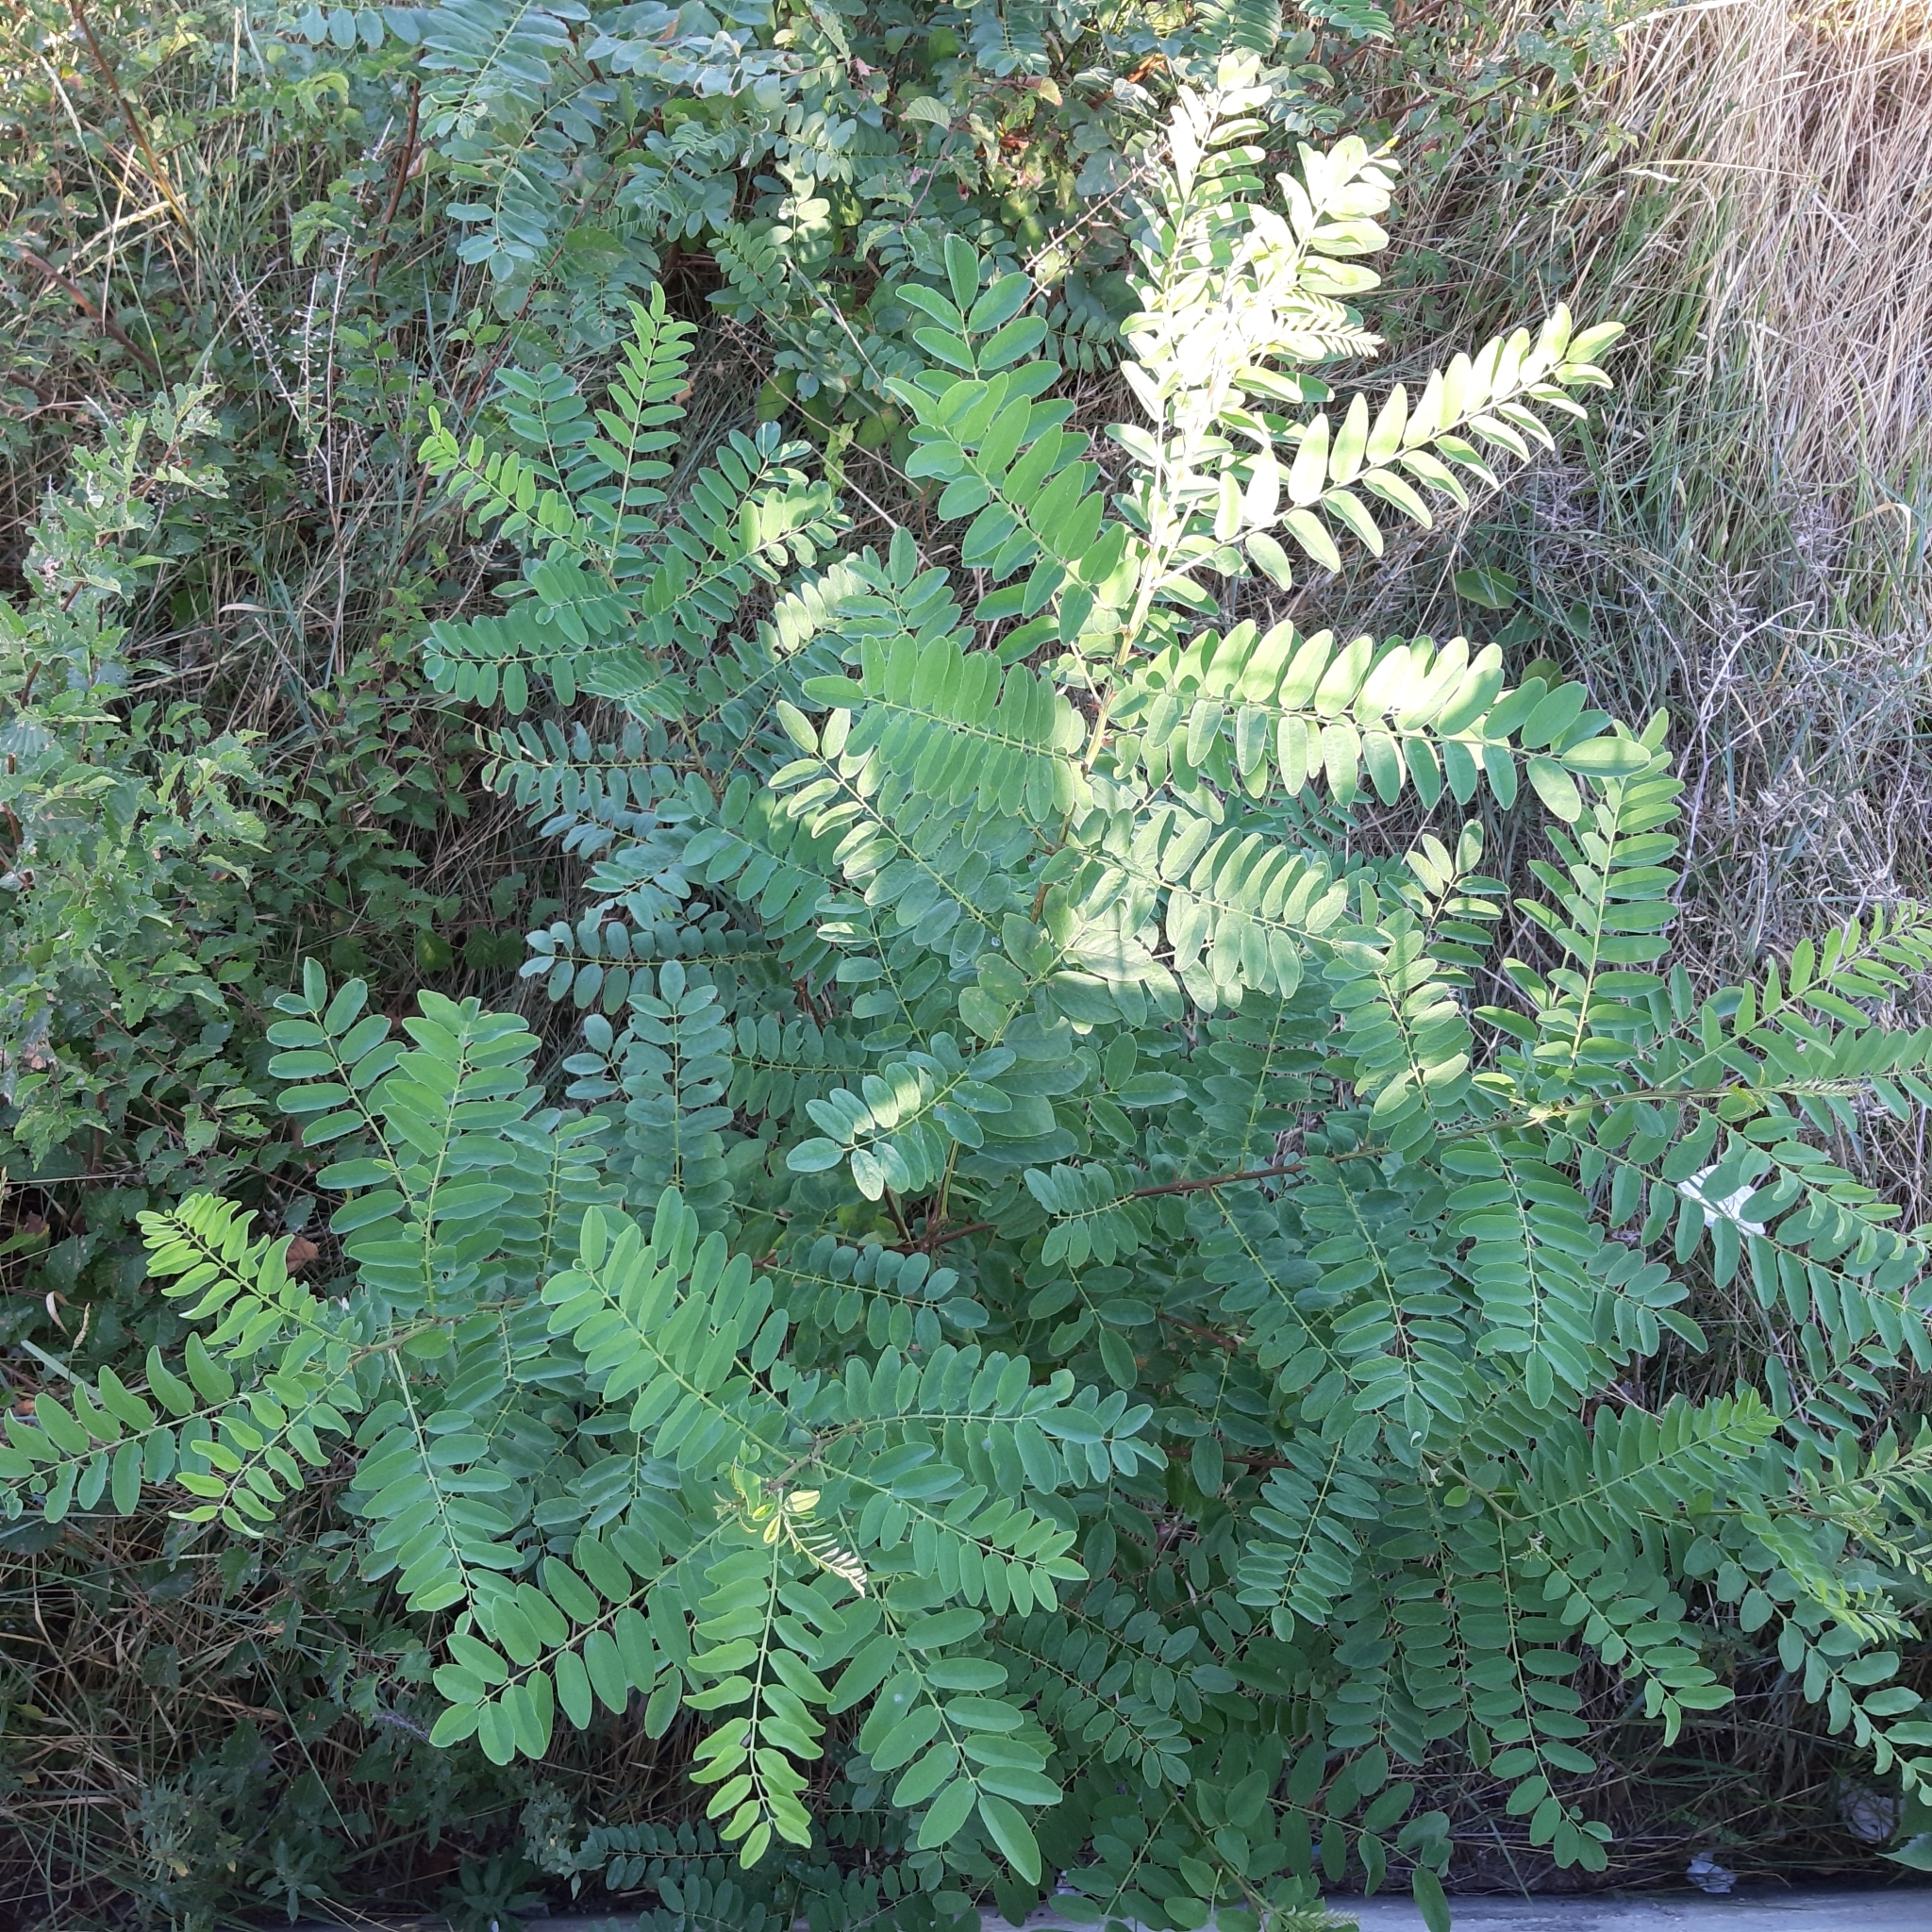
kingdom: Plantae
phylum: Tracheophyta
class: Magnoliopsida
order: Fabales
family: Fabaceae
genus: Amorpha
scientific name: Amorpha fruticosa
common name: False indigo
